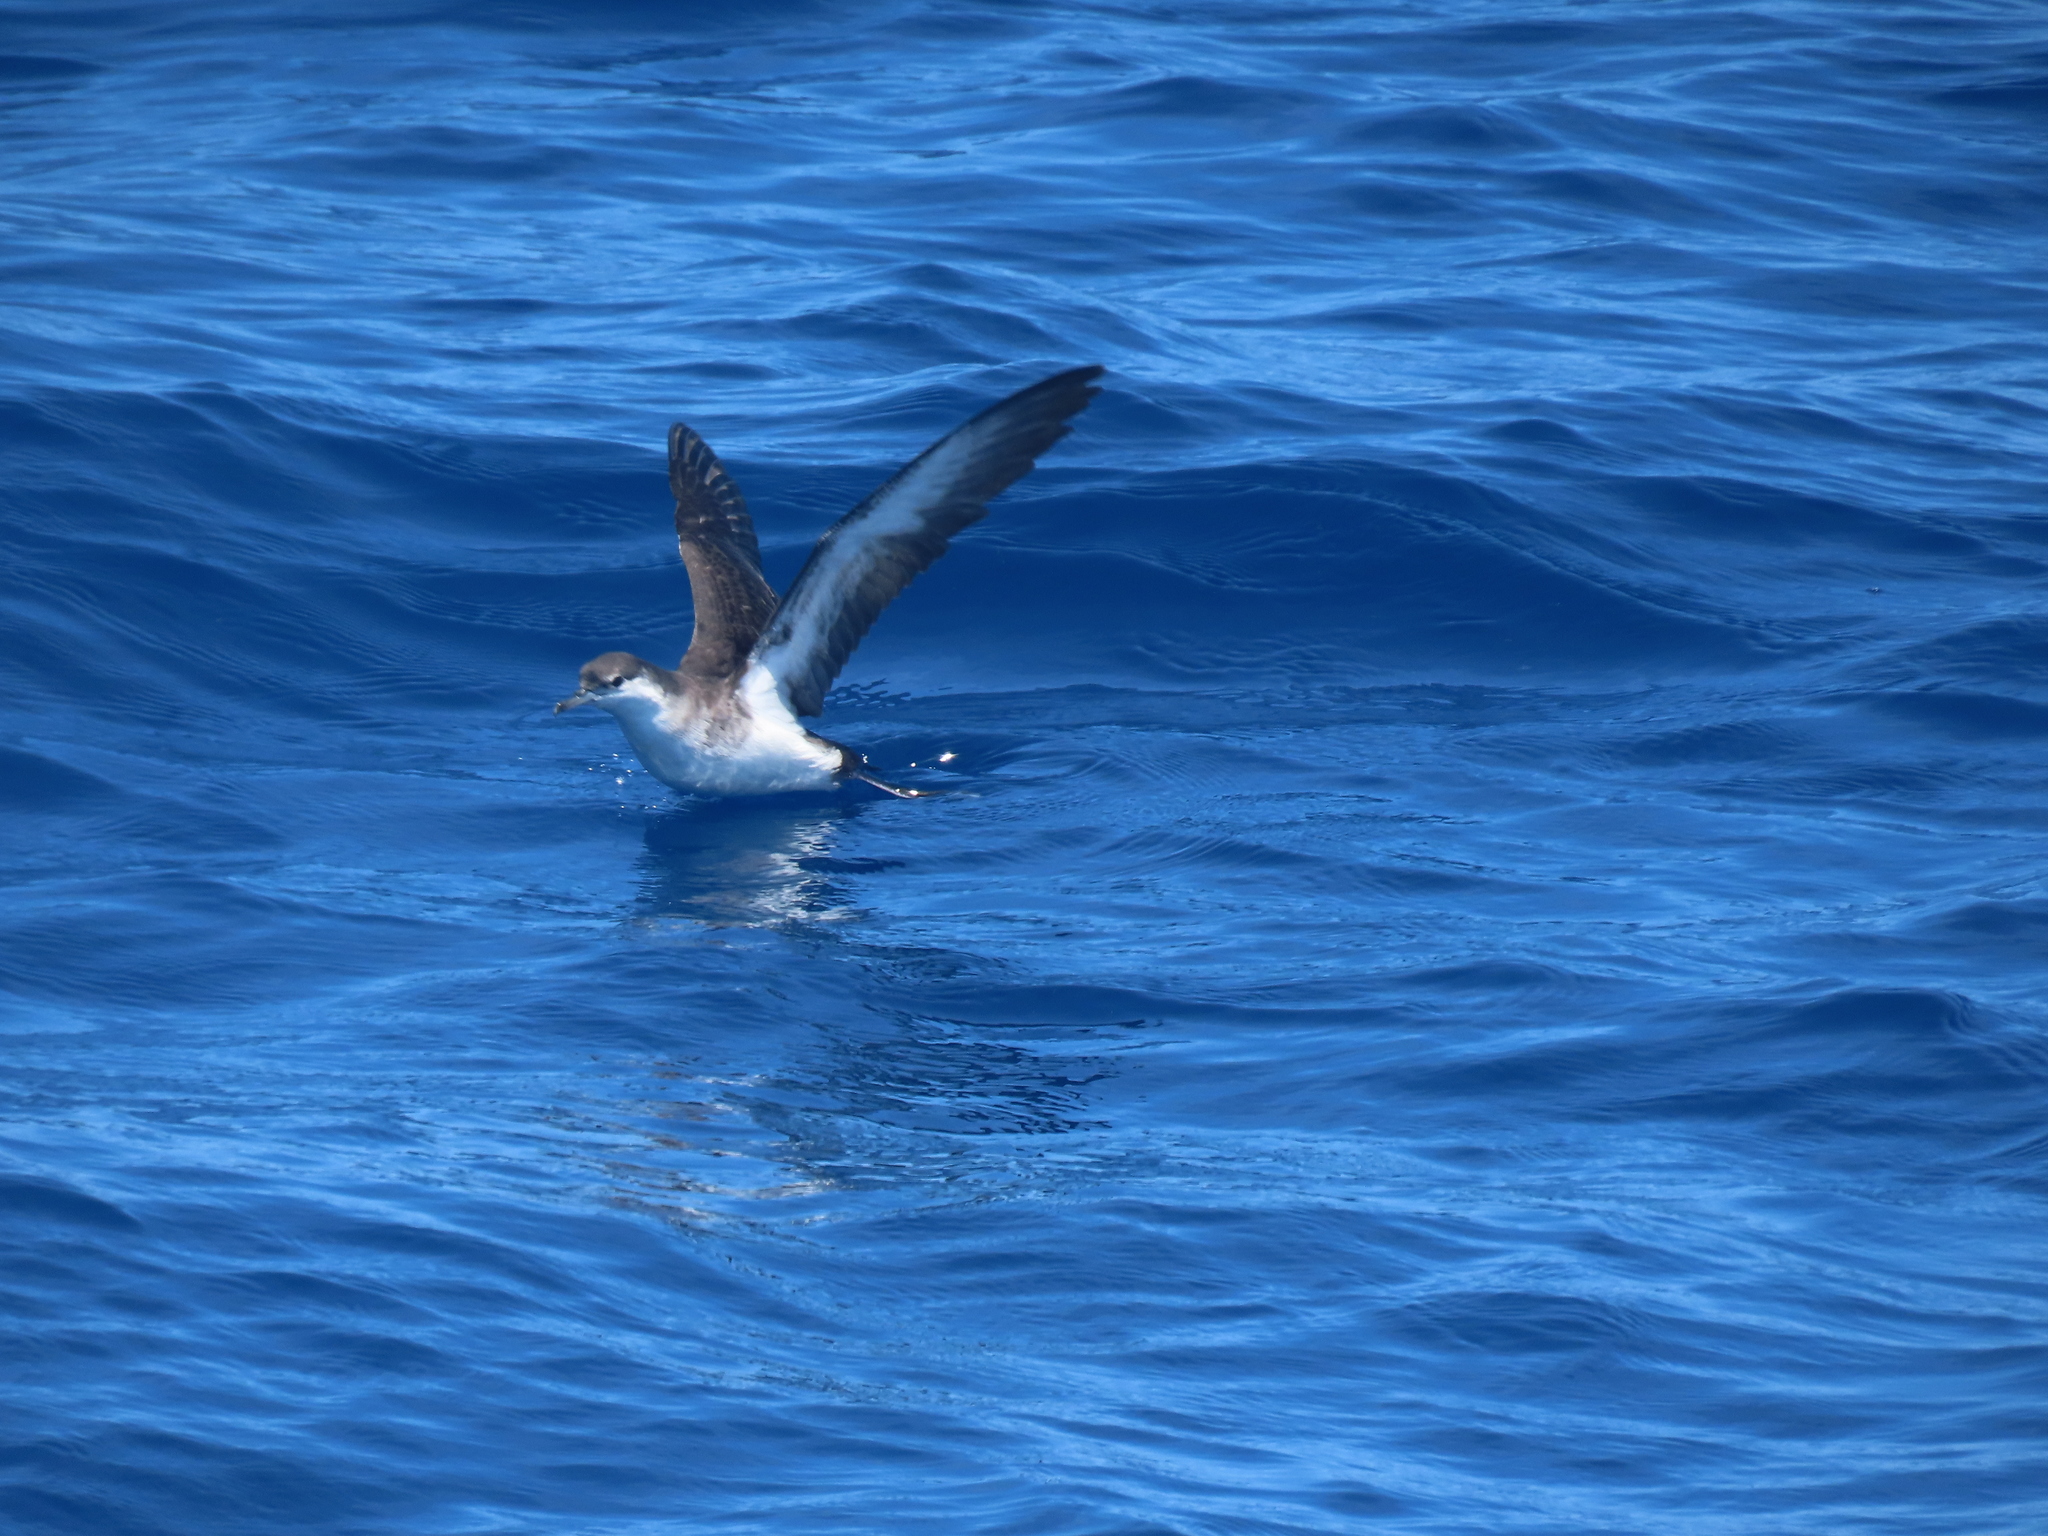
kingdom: Animalia
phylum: Chordata
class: Aves
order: Procellariiformes
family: Procellariidae
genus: Puffinus
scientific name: Puffinus lherminieri
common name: Audubon's shearwater
